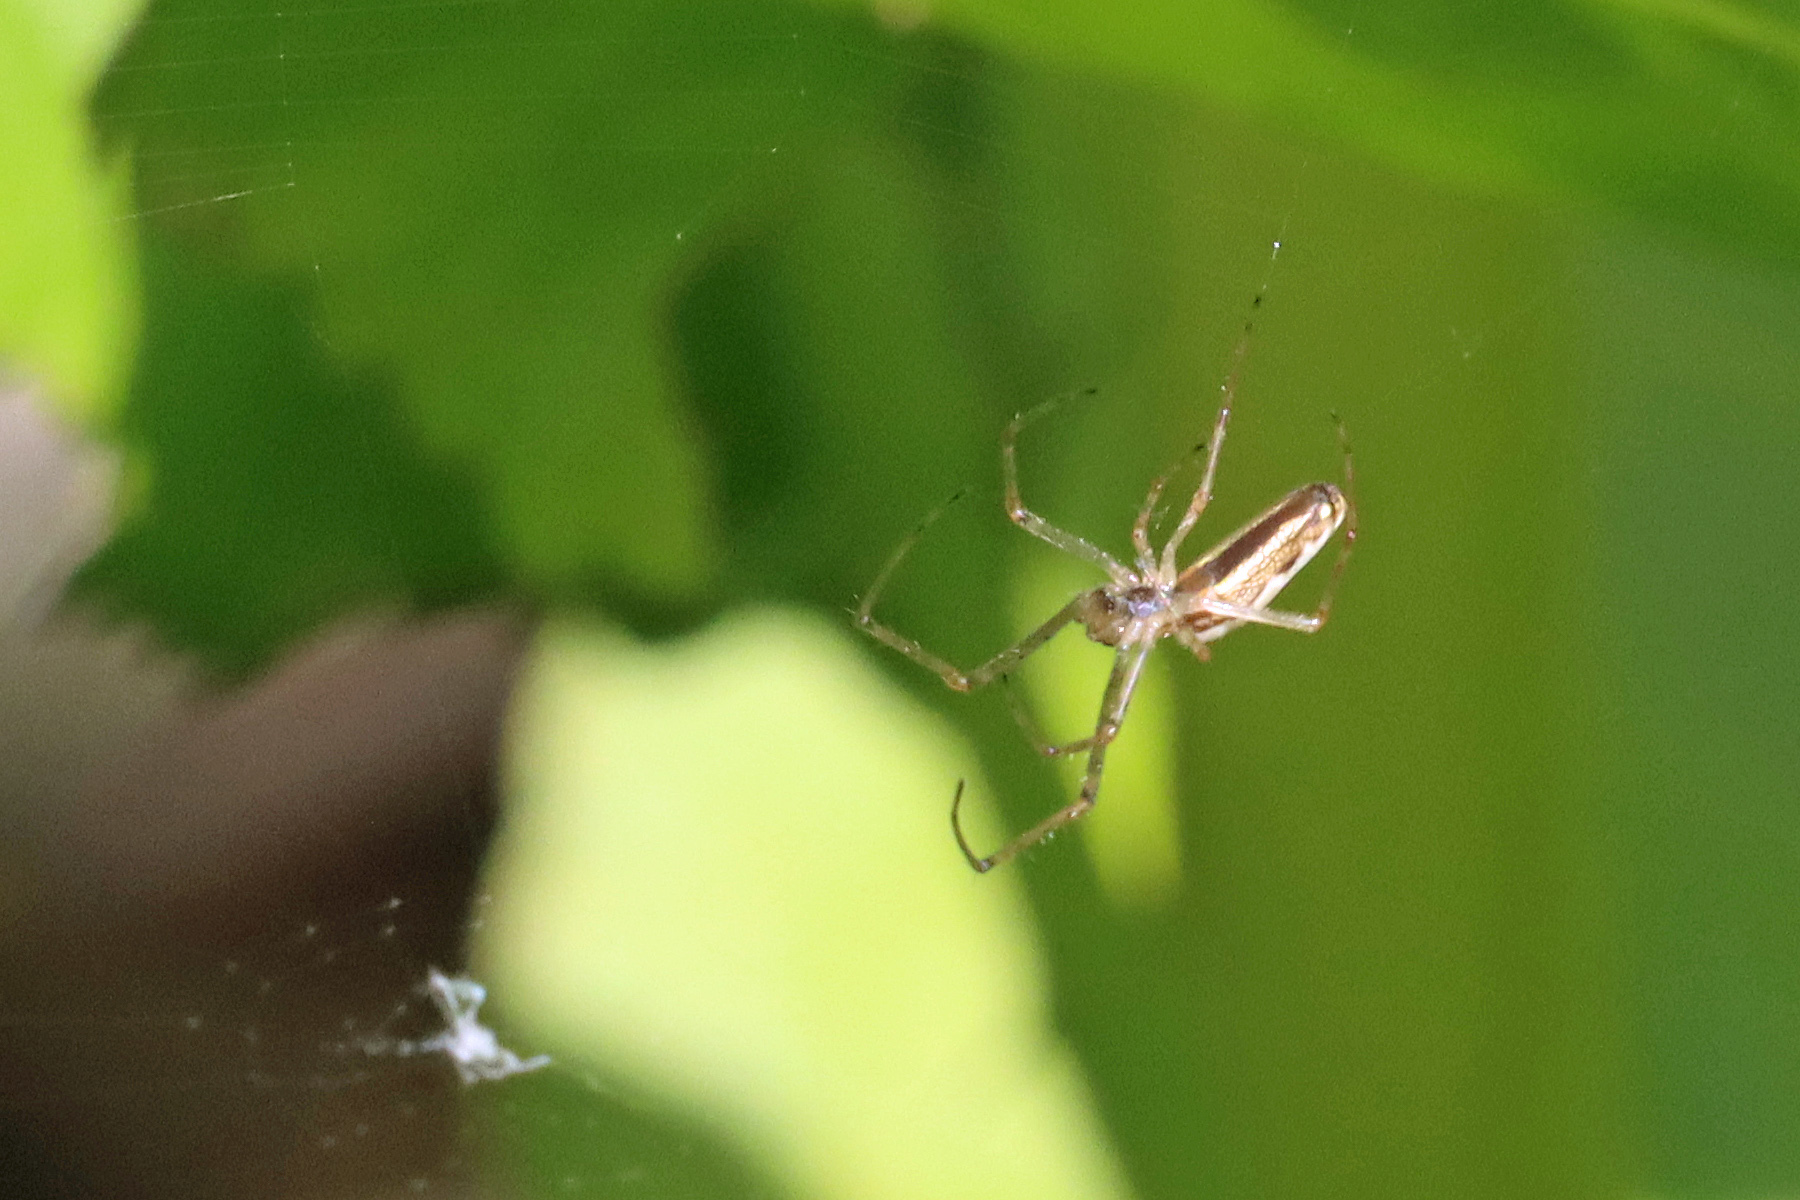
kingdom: Animalia
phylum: Arthropoda
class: Arachnida
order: Araneae
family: Tetragnathidae
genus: Tetragnatha
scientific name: Tetragnatha
